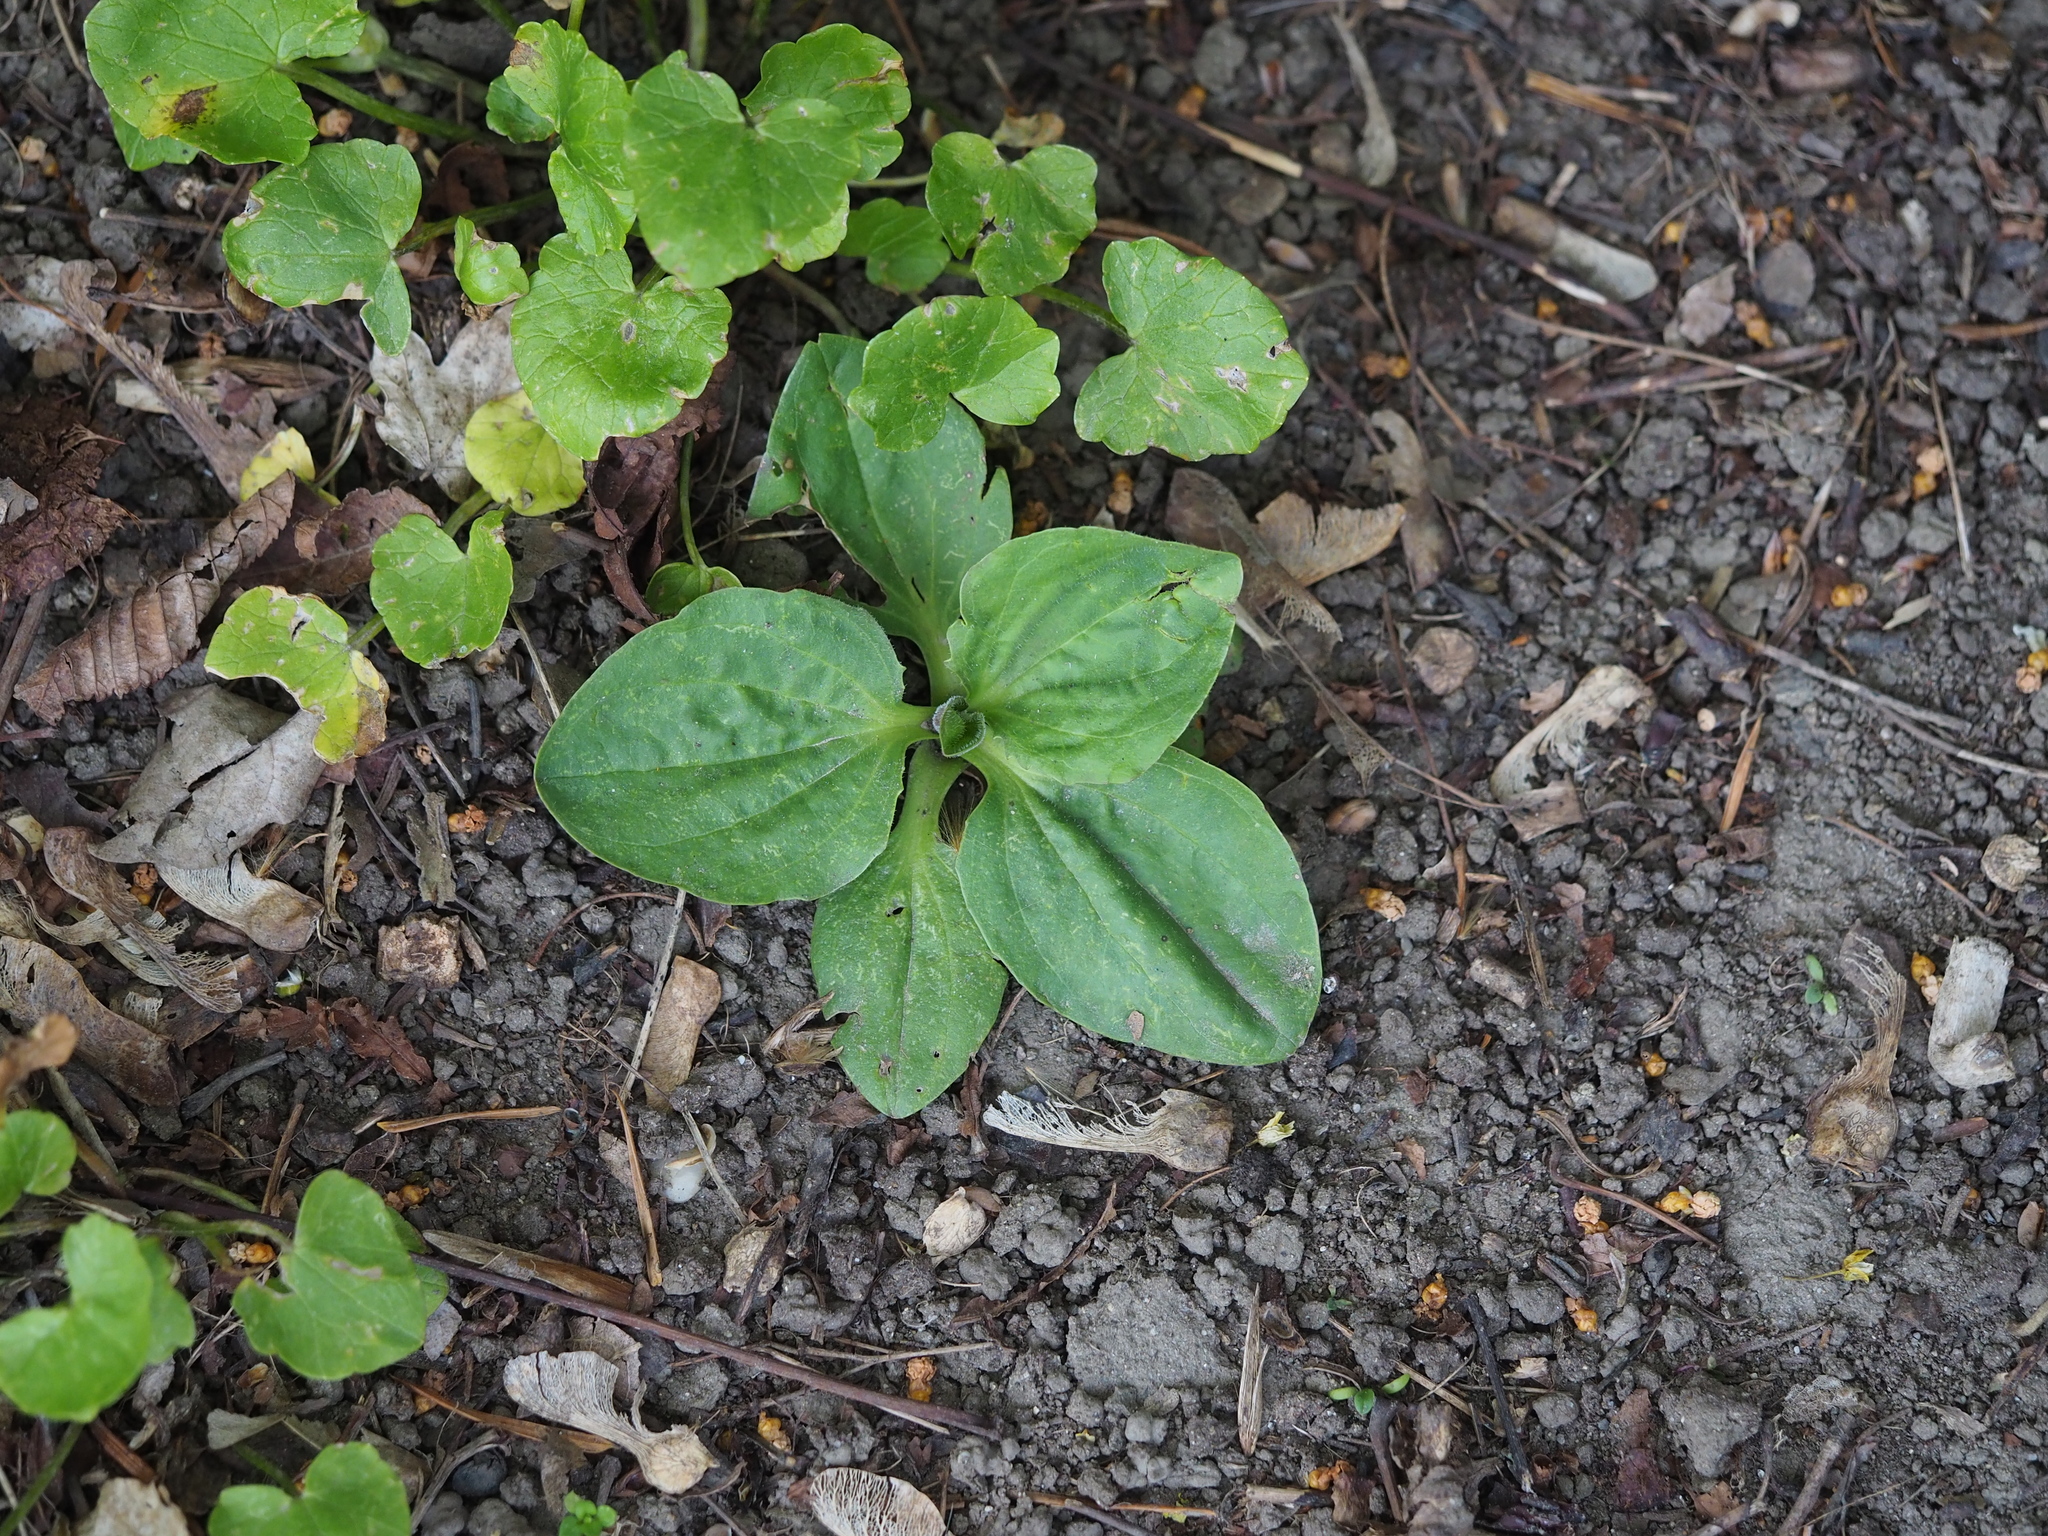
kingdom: Plantae
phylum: Tracheophyta
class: Magnoliopsida
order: Lamiales
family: Plantaginaceae
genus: Plantago
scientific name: Plantago major
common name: Common plantain
